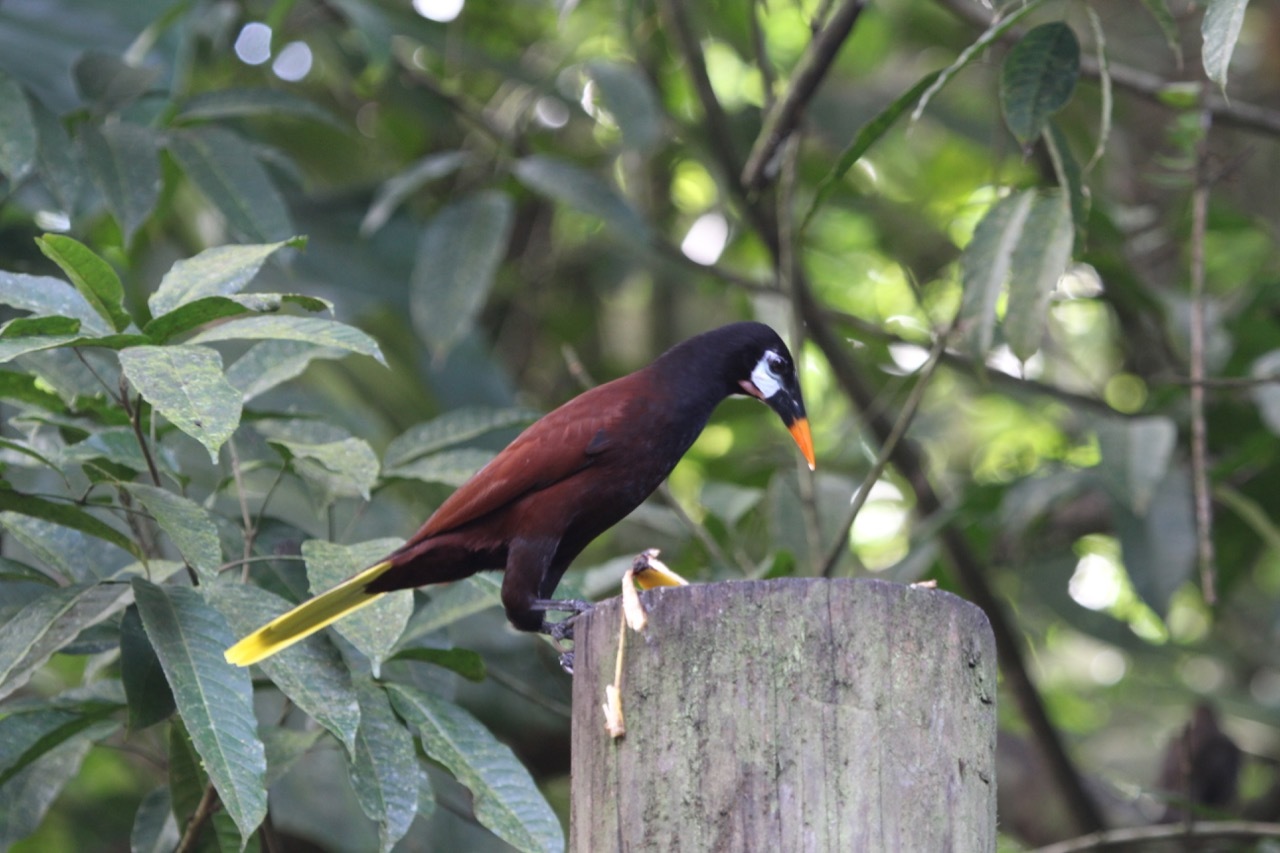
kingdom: Animalia
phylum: Chordata
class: Aves
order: Passeriformes
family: Icteridae
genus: Psarocolius
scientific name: Psarocolius montezuma
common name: Montezuma oropendola
